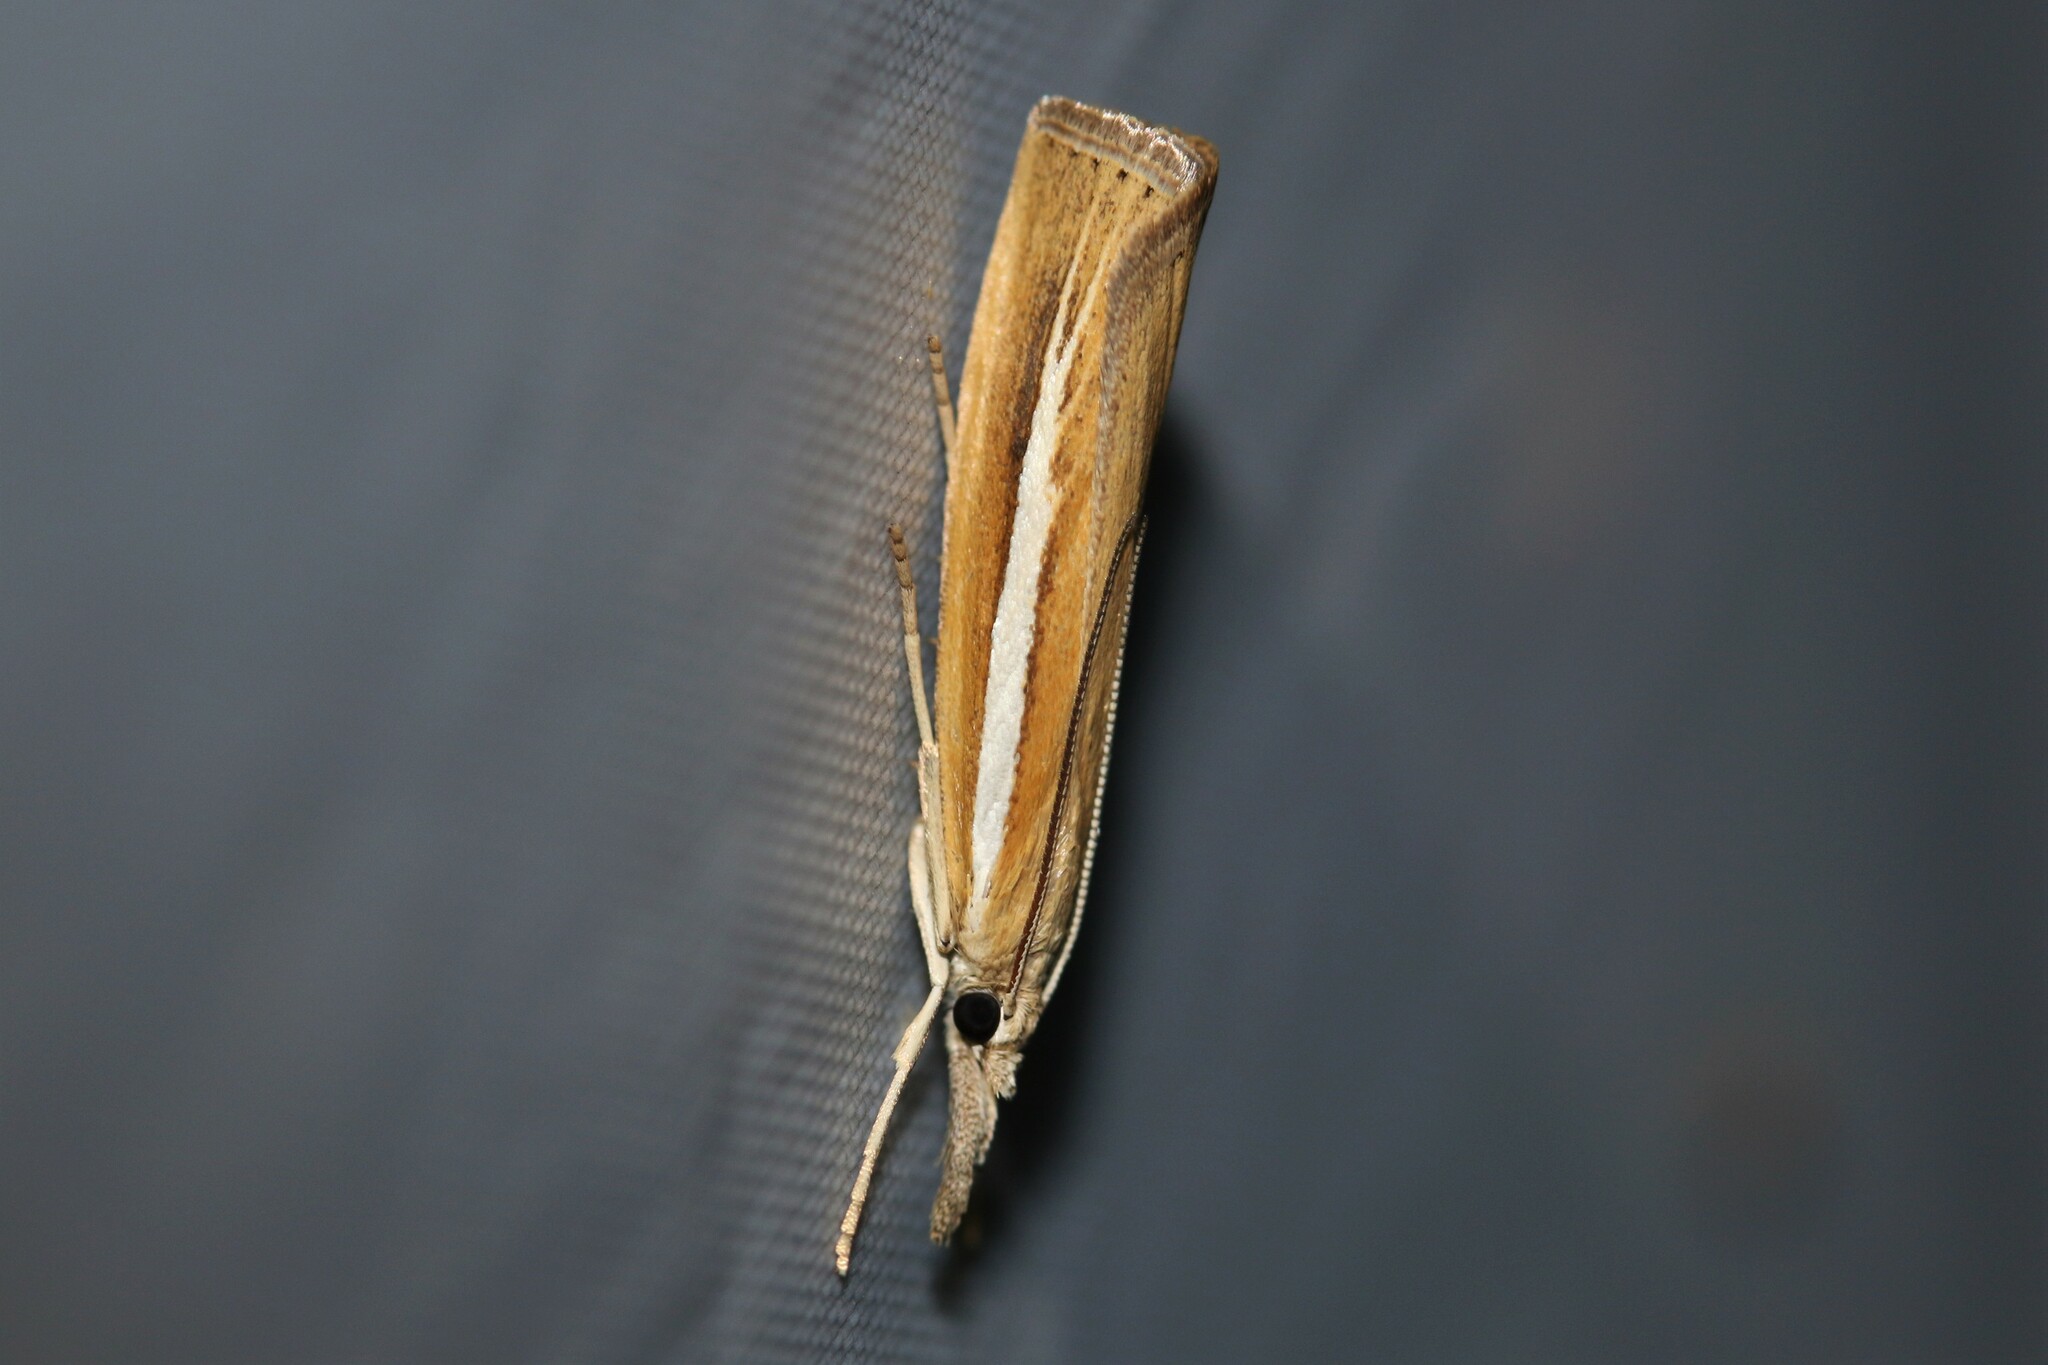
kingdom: Animalia
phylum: Arthropoda
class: Insecta
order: Lepidoptera
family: Crambidae
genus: Agriphila
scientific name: Agriphila selasella
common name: Pale-streak grass-veneer
